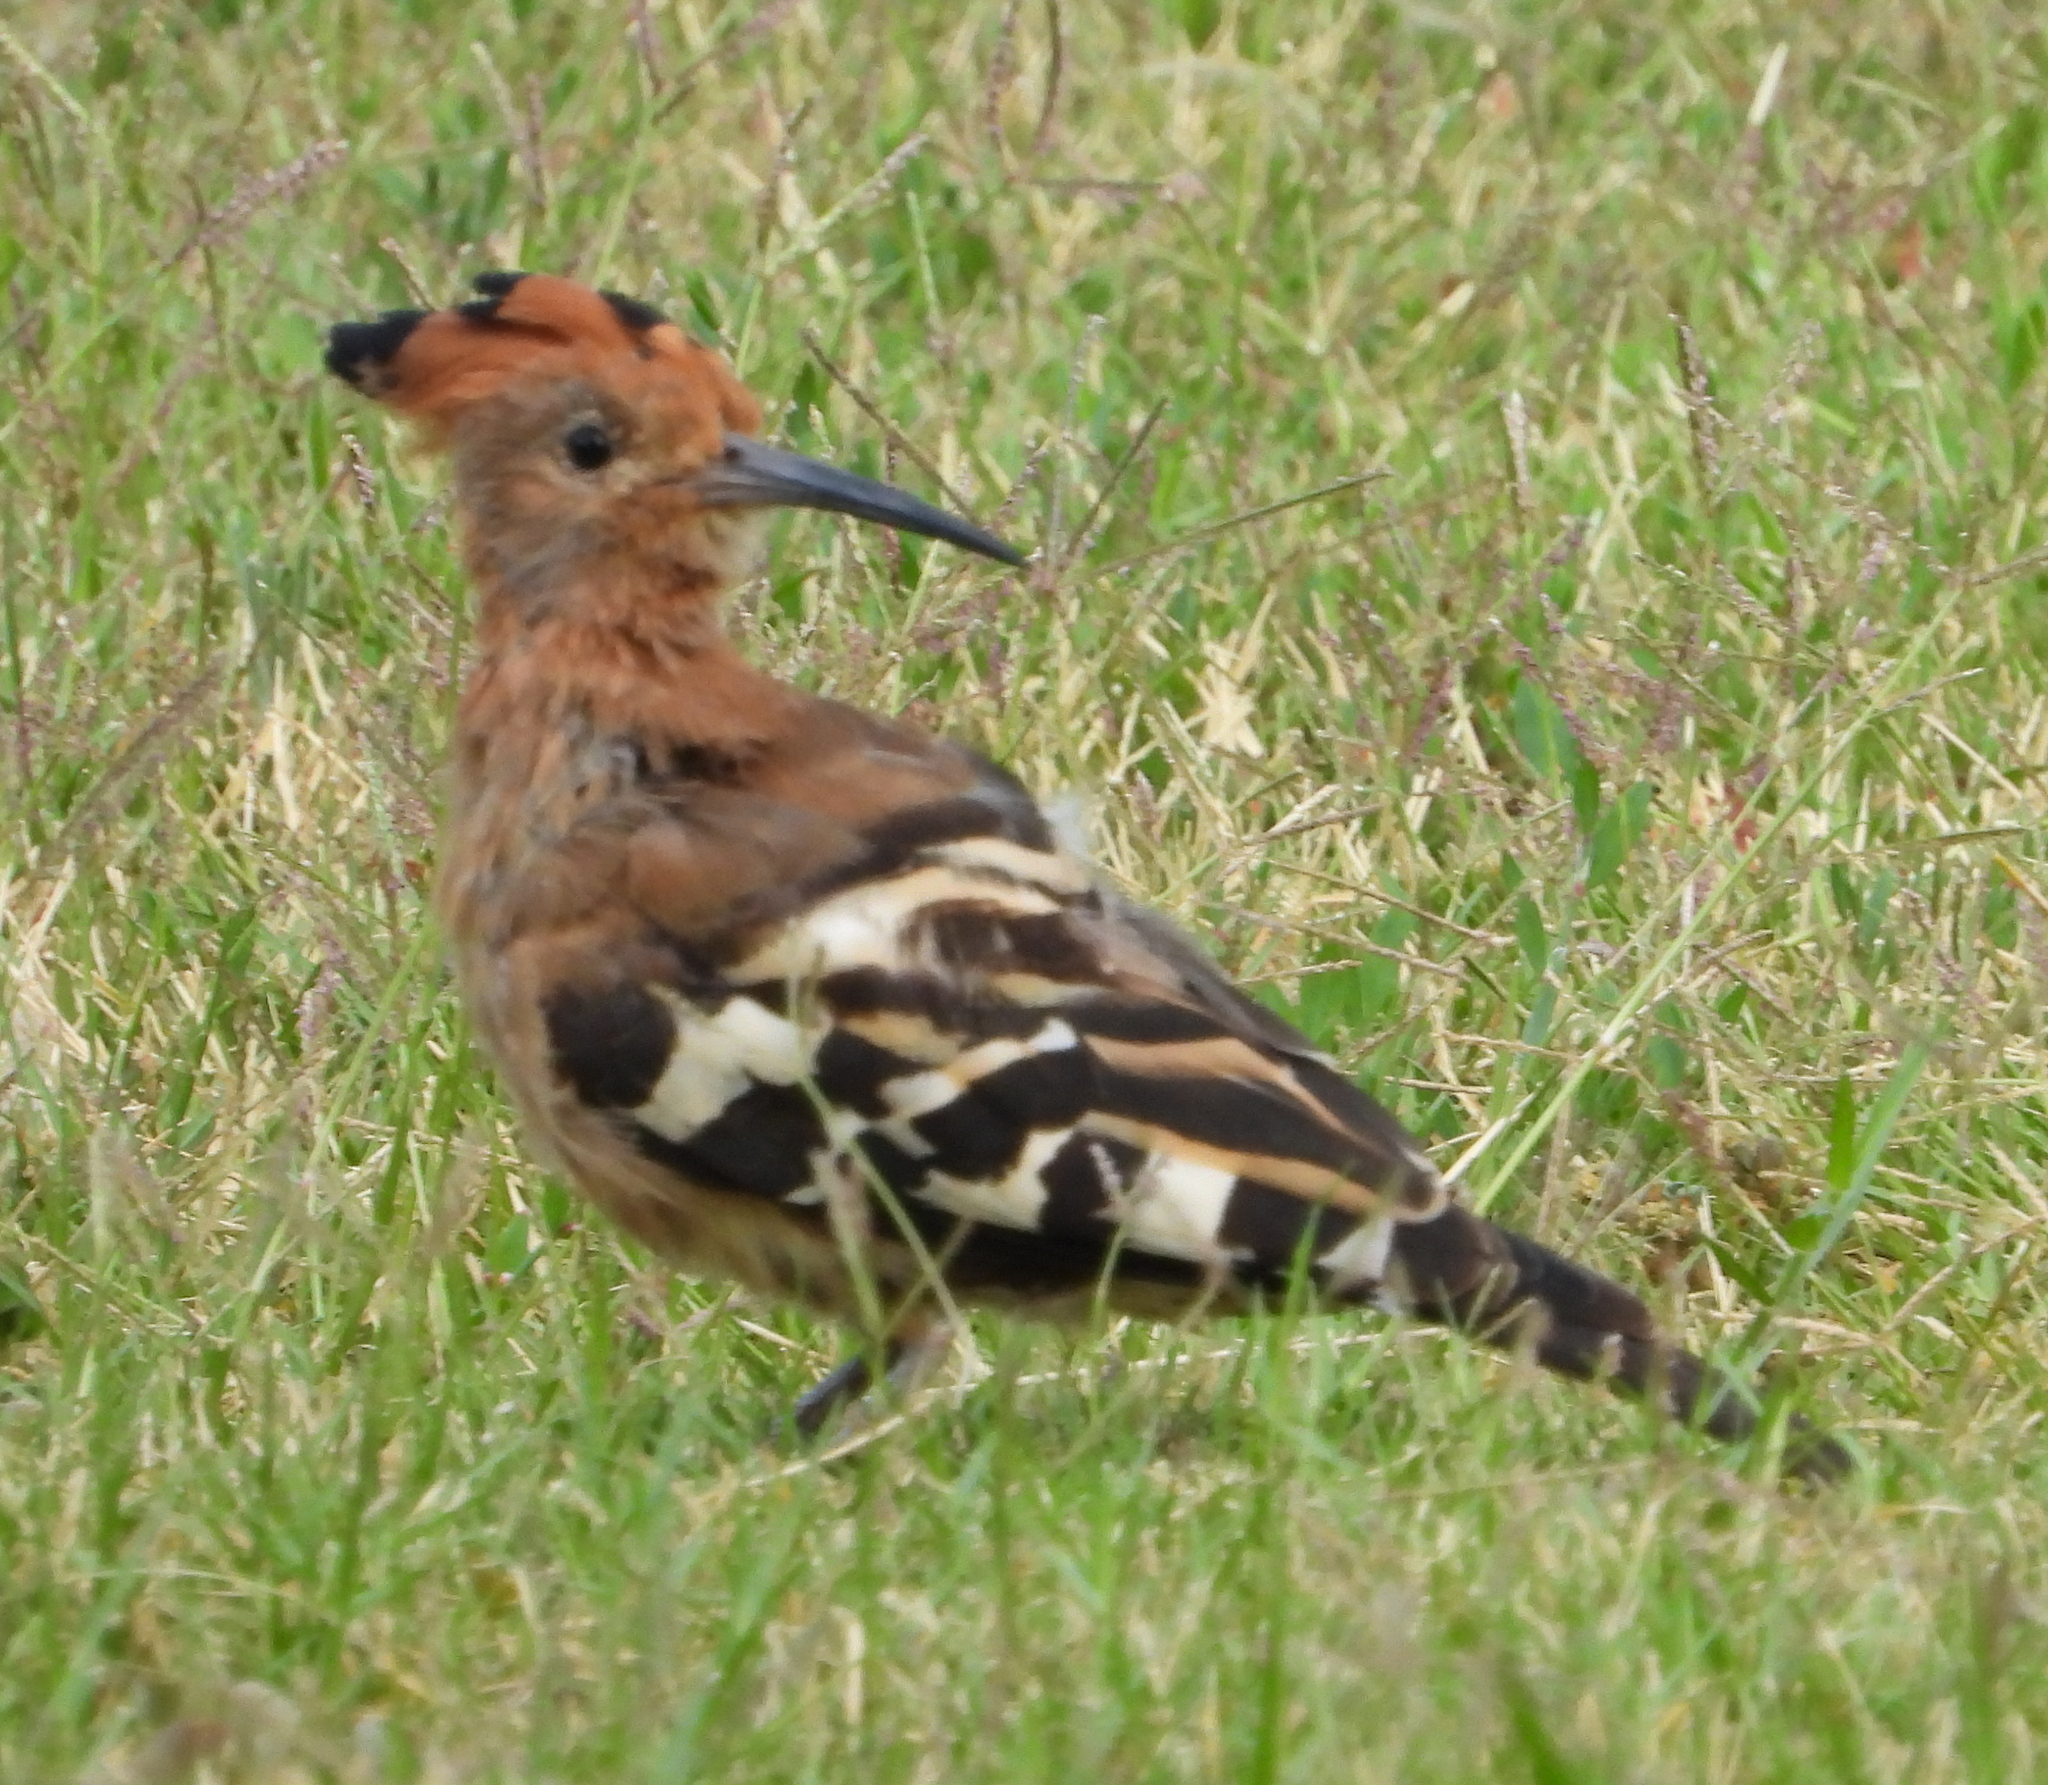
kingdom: Animalia
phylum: Chordata
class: Aves
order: Bucerotiformes
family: Upupidae
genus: Upupa
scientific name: Upupa africana
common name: African hoopoe
